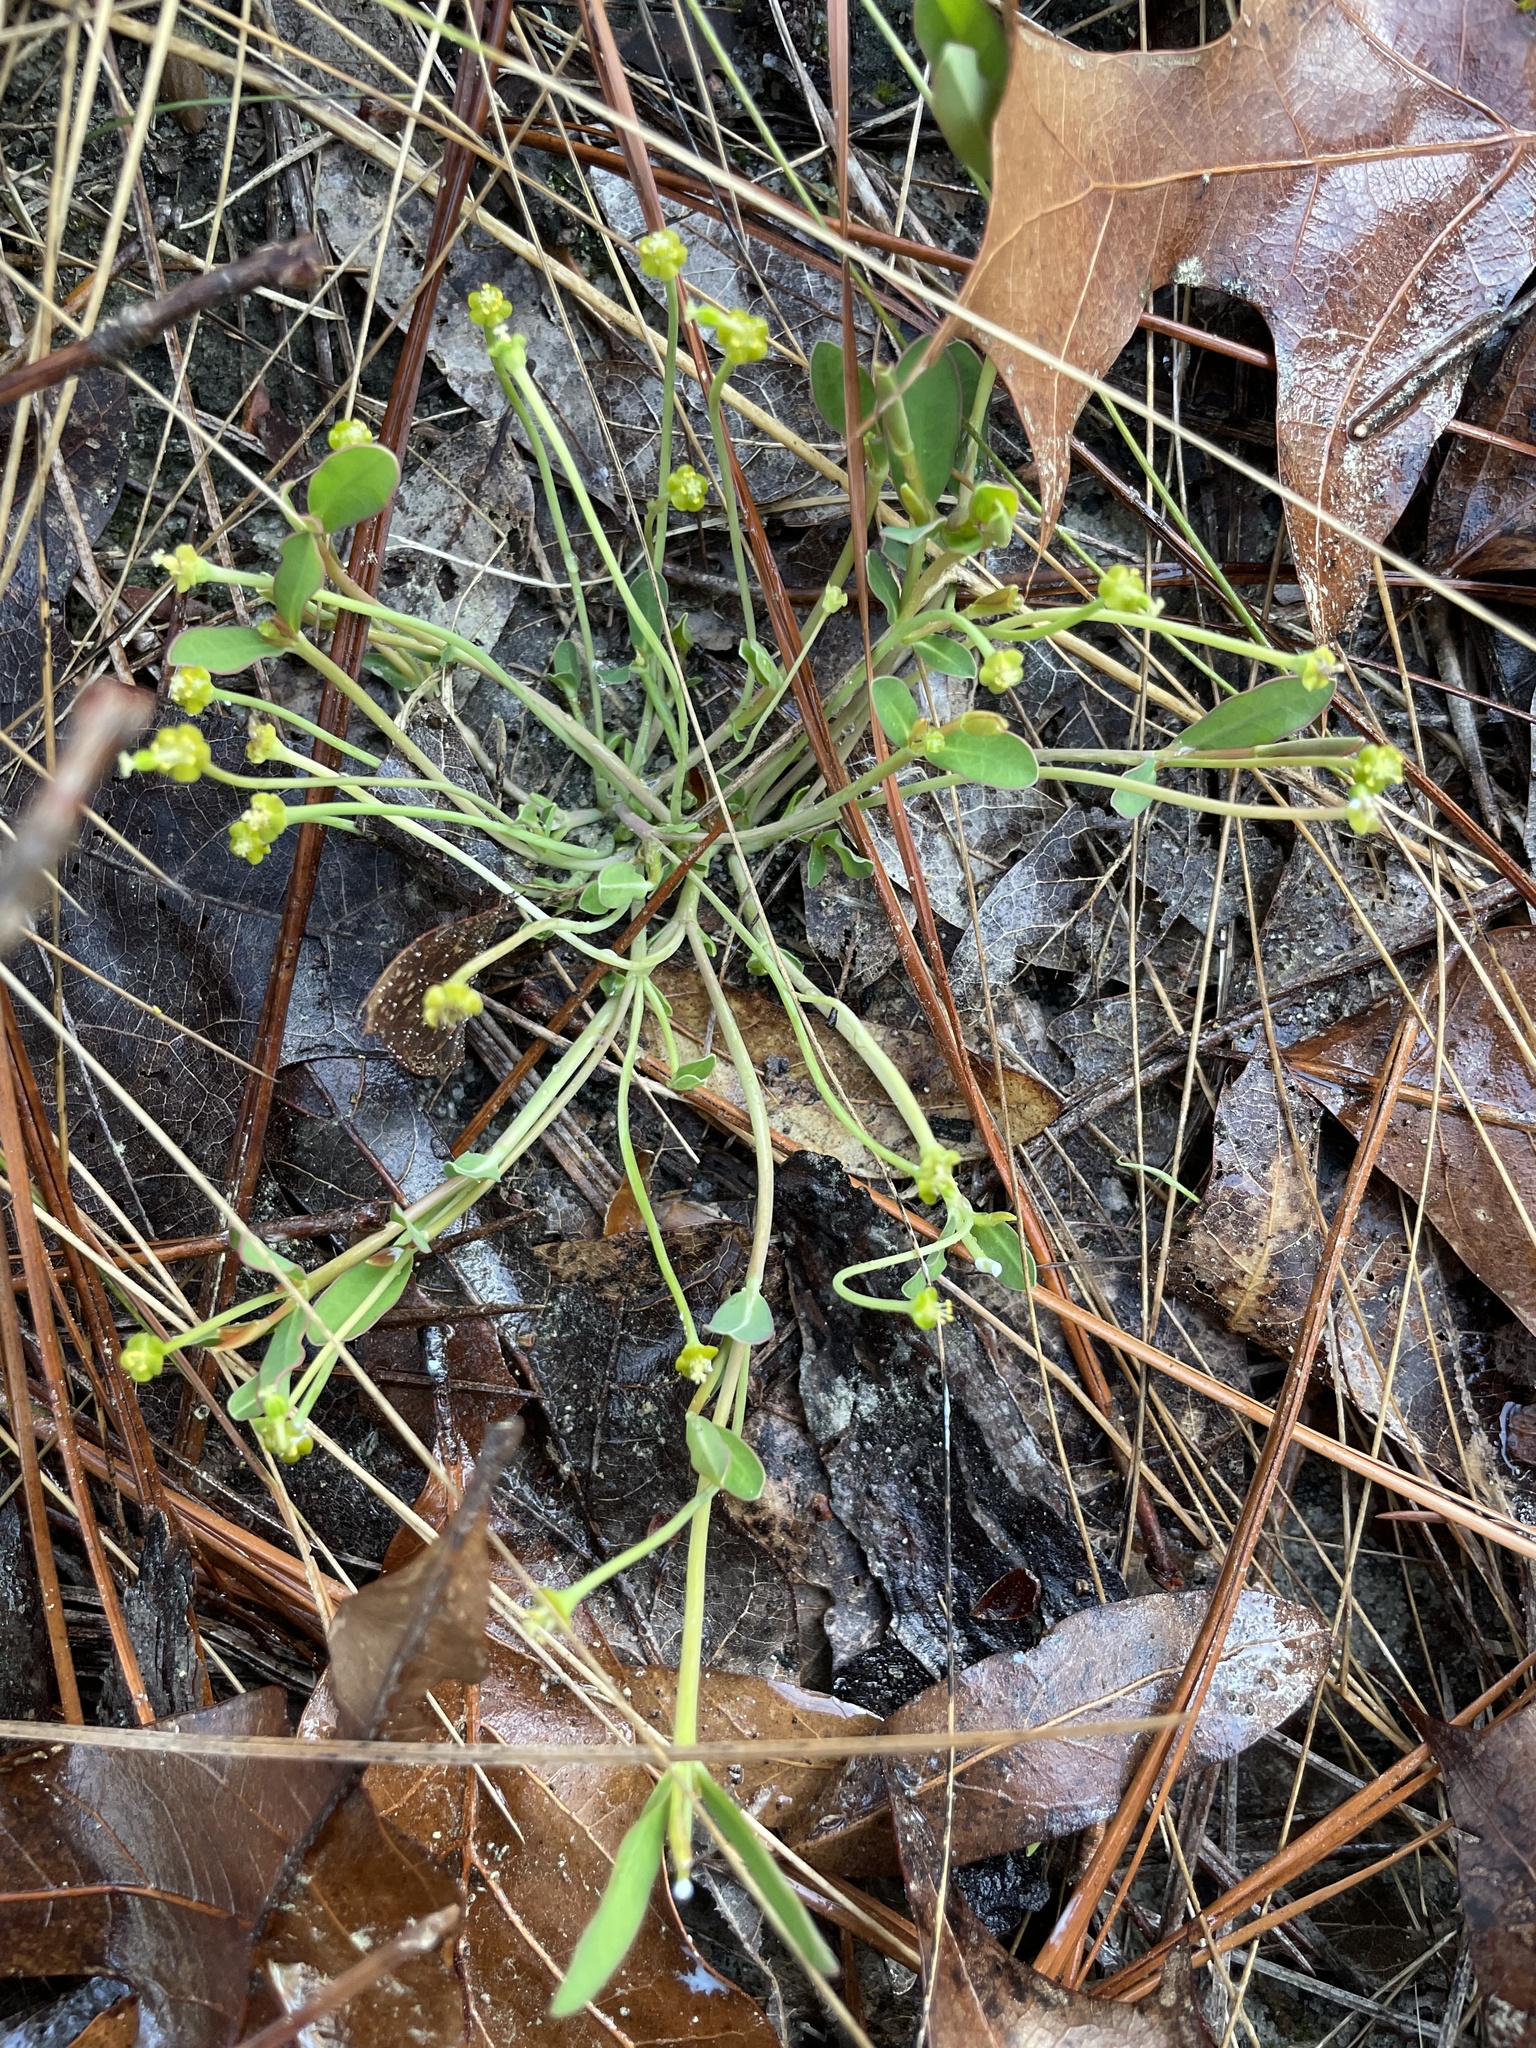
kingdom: Plantae
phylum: Tracheophyta
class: Magnoliopsida
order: Malpighiales
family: Euphorbiaceae
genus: Euphorbia
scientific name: Euphorbia ipecacuanhae
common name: Carolina ipecac
